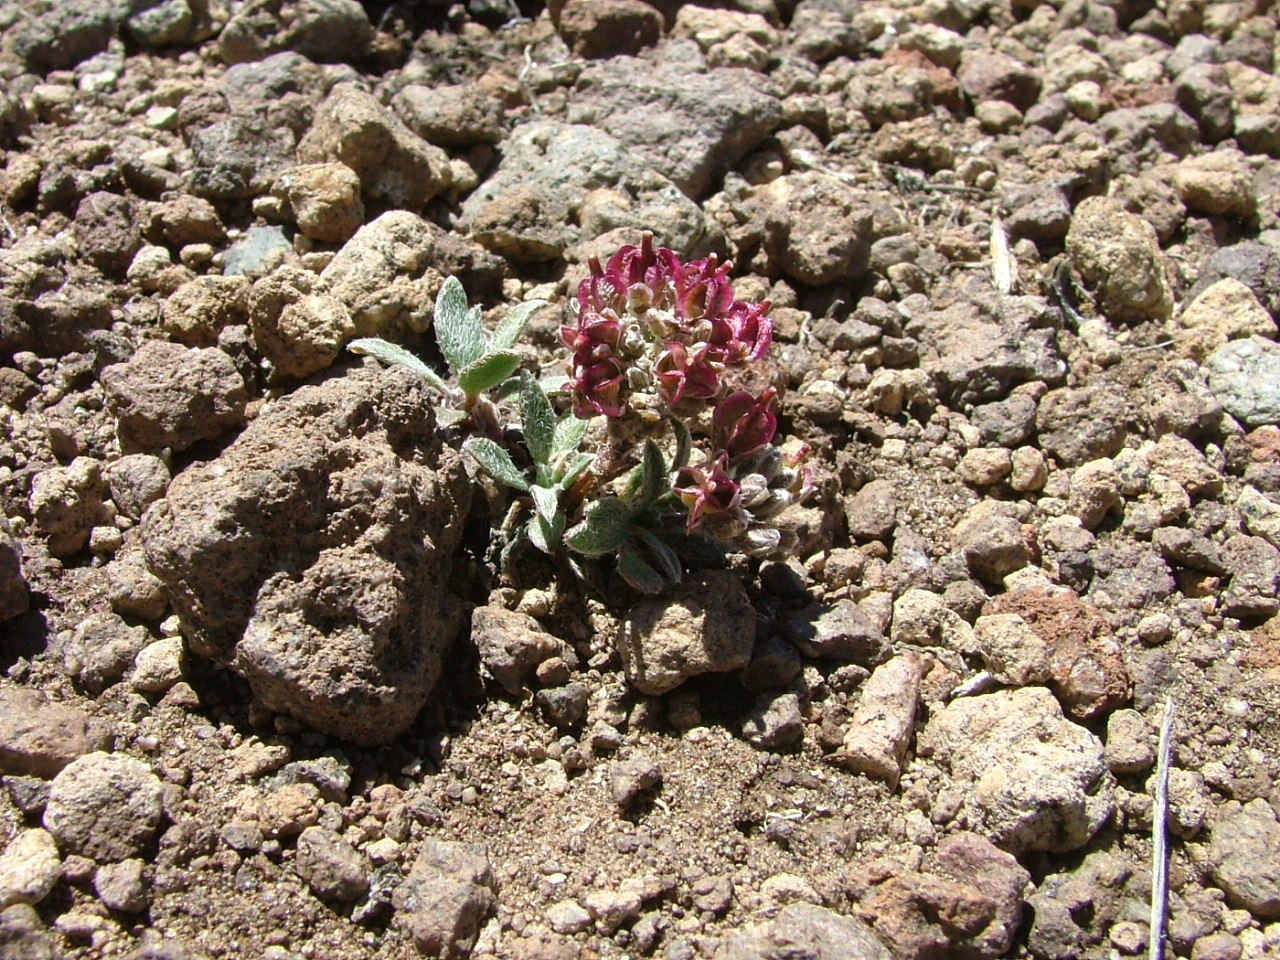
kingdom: Plantae
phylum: Tracheophyta
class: Magnoliopsida
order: Brassicales
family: Brassicaceae
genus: Menonvillea
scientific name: Menonvillea spathulata
